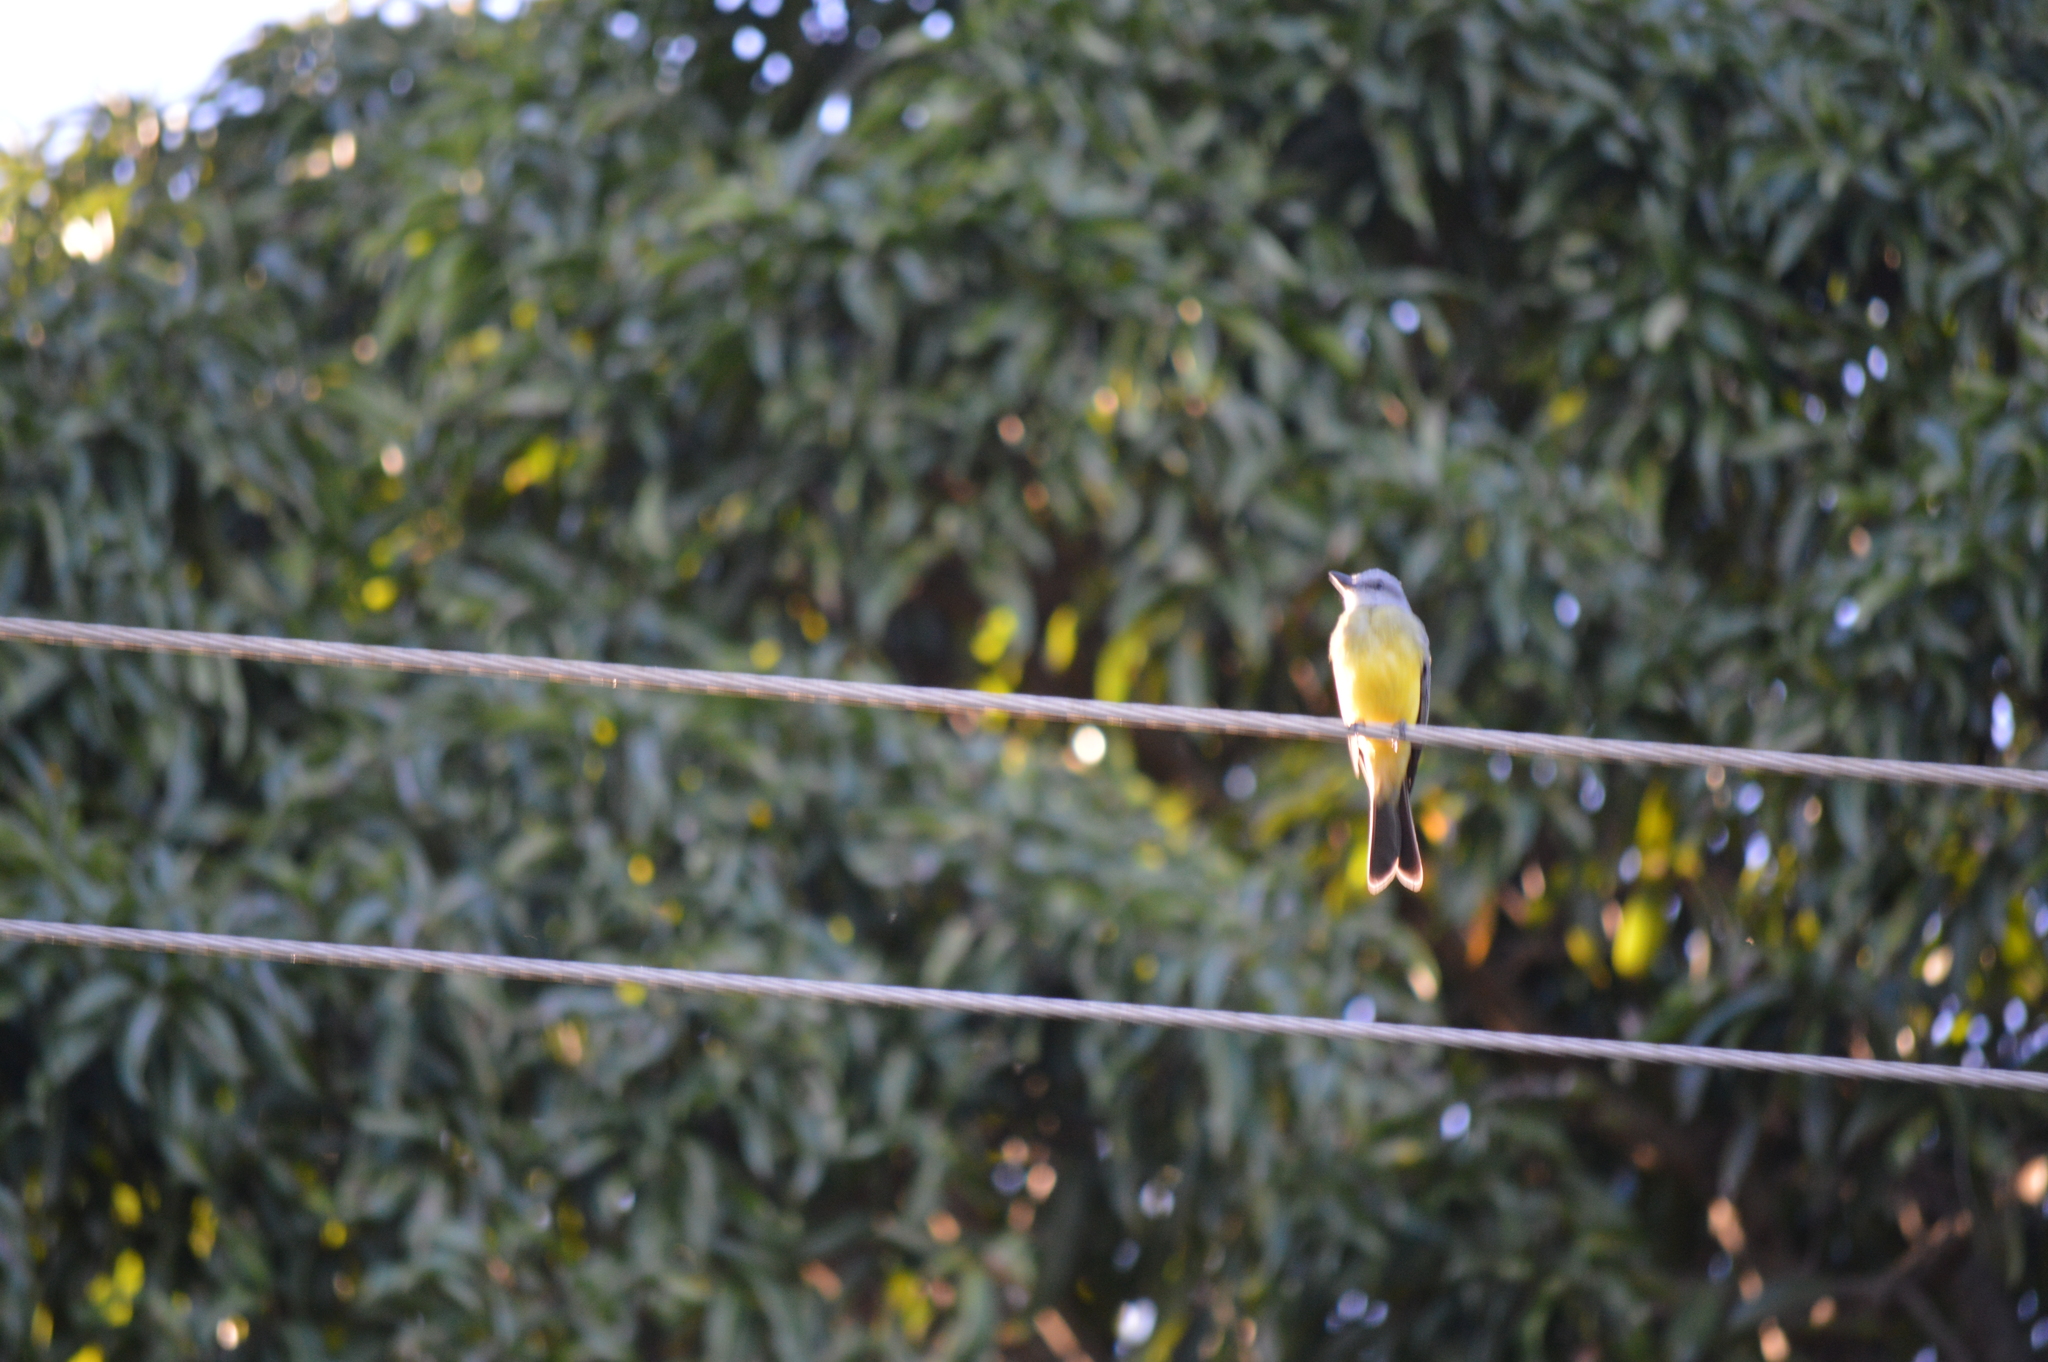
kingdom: Animalia
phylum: Chordata
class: Aves
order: Passeriformes
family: Tyrannidae
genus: Tyrannus
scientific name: Tyrannus melancholicus
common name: Tropical kingbird
